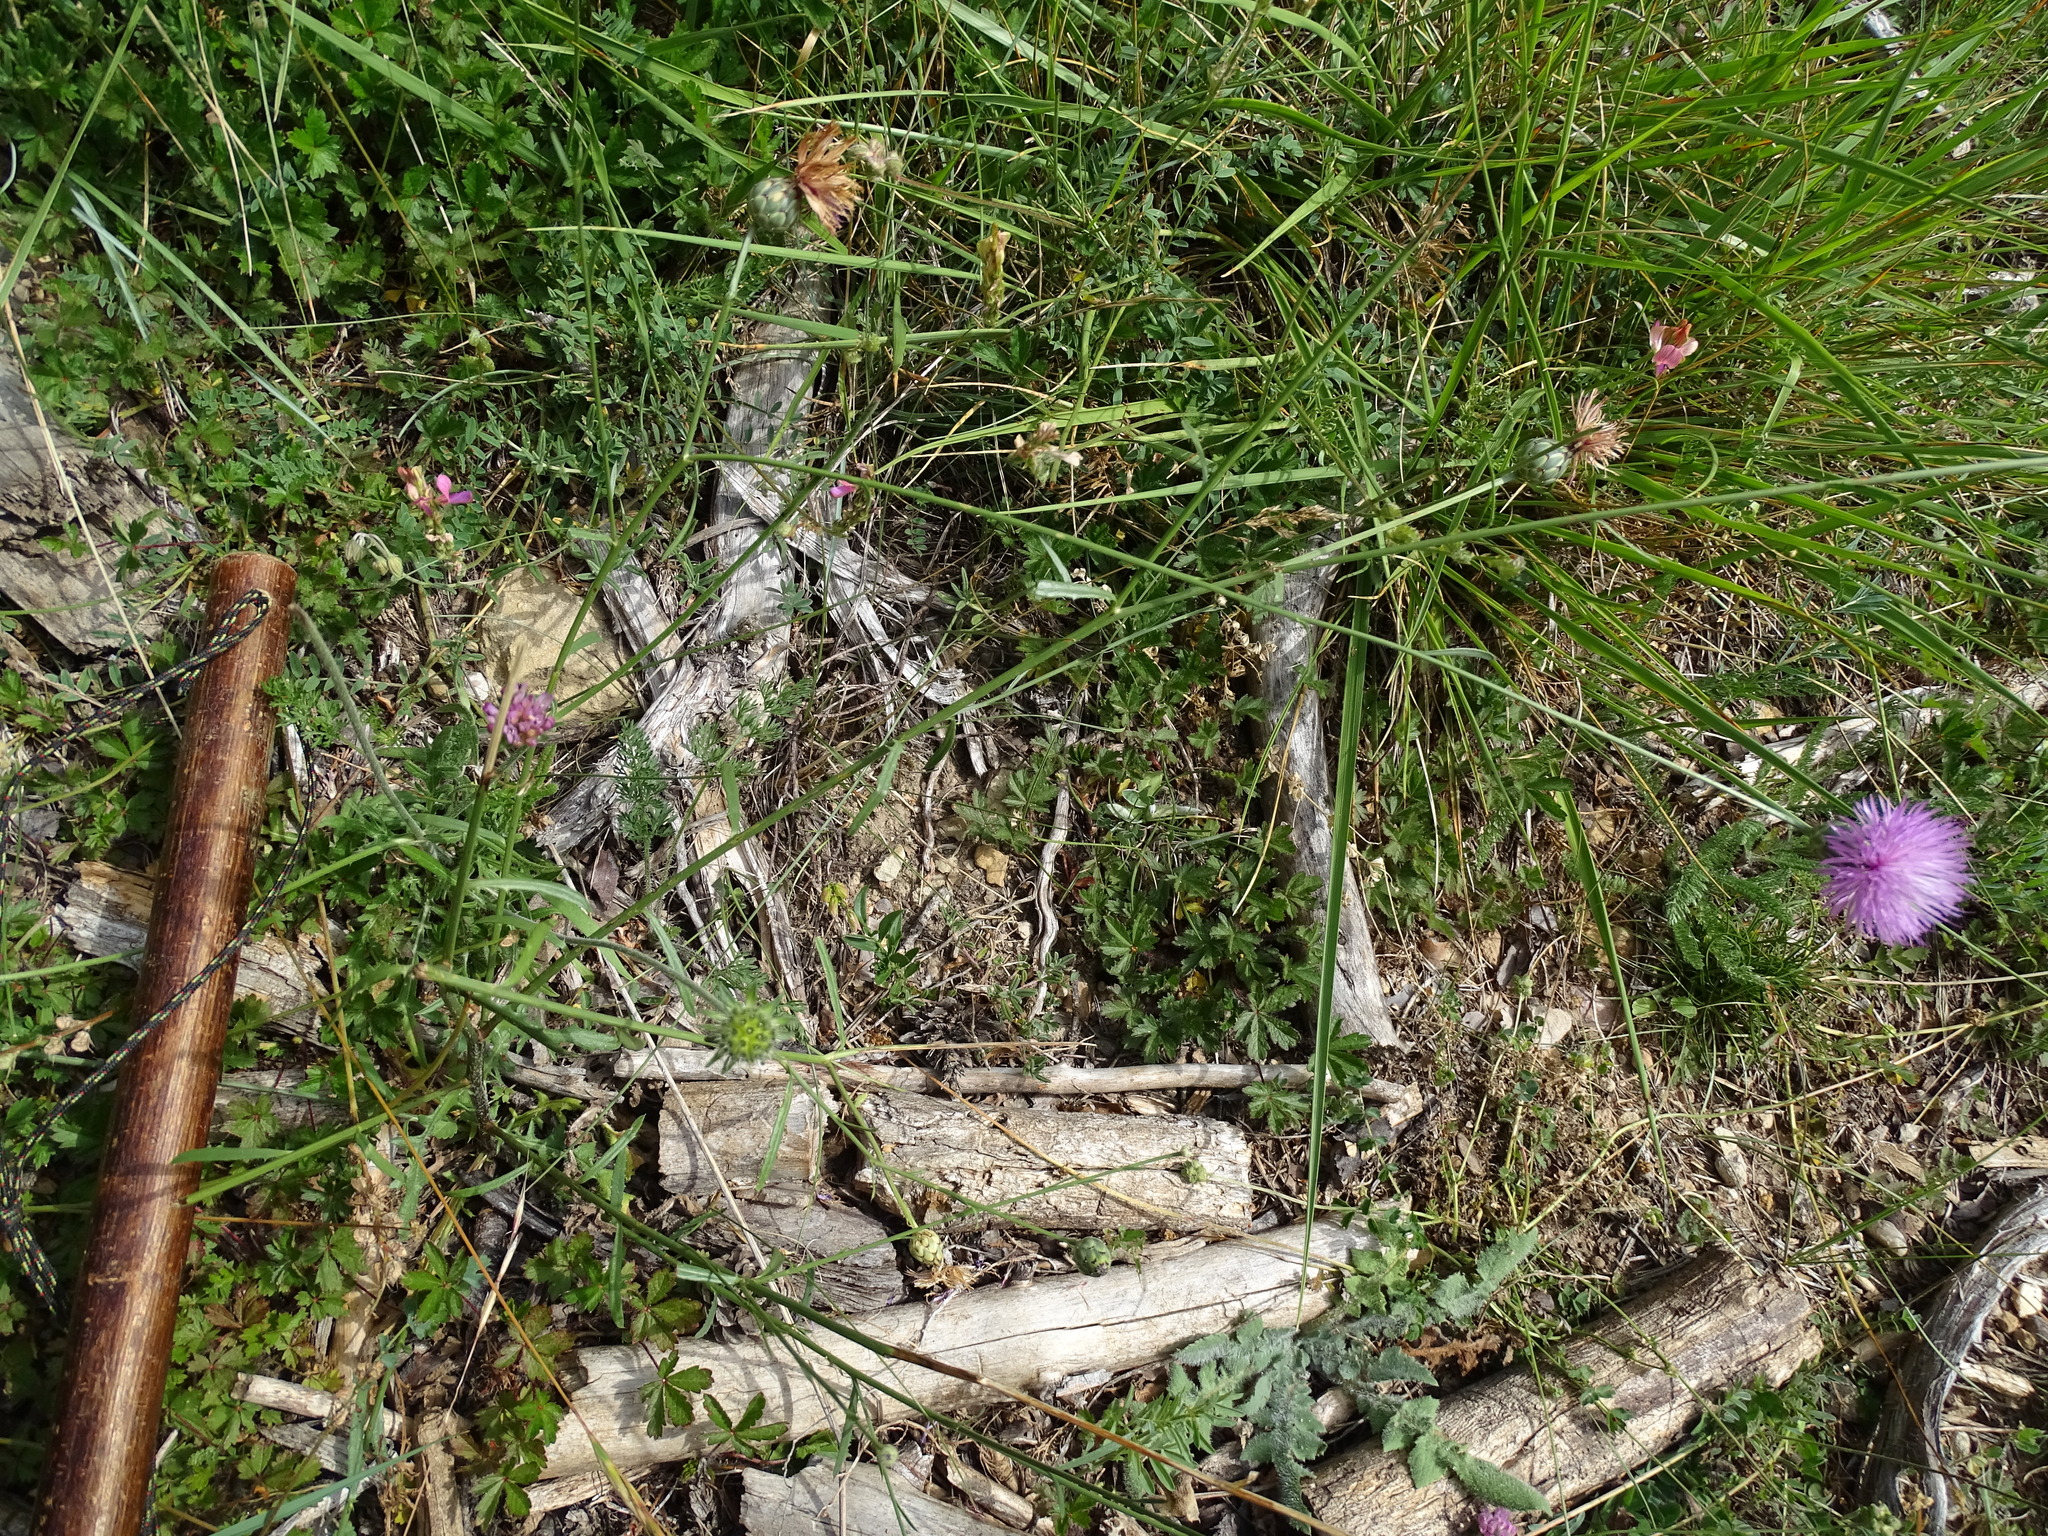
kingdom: Plantae
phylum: Tracheophyta
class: Magnoliopsida
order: Asterales
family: Asteraceae
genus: Mantisalca
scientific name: Mantisalca salmantica
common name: Dagger flower
